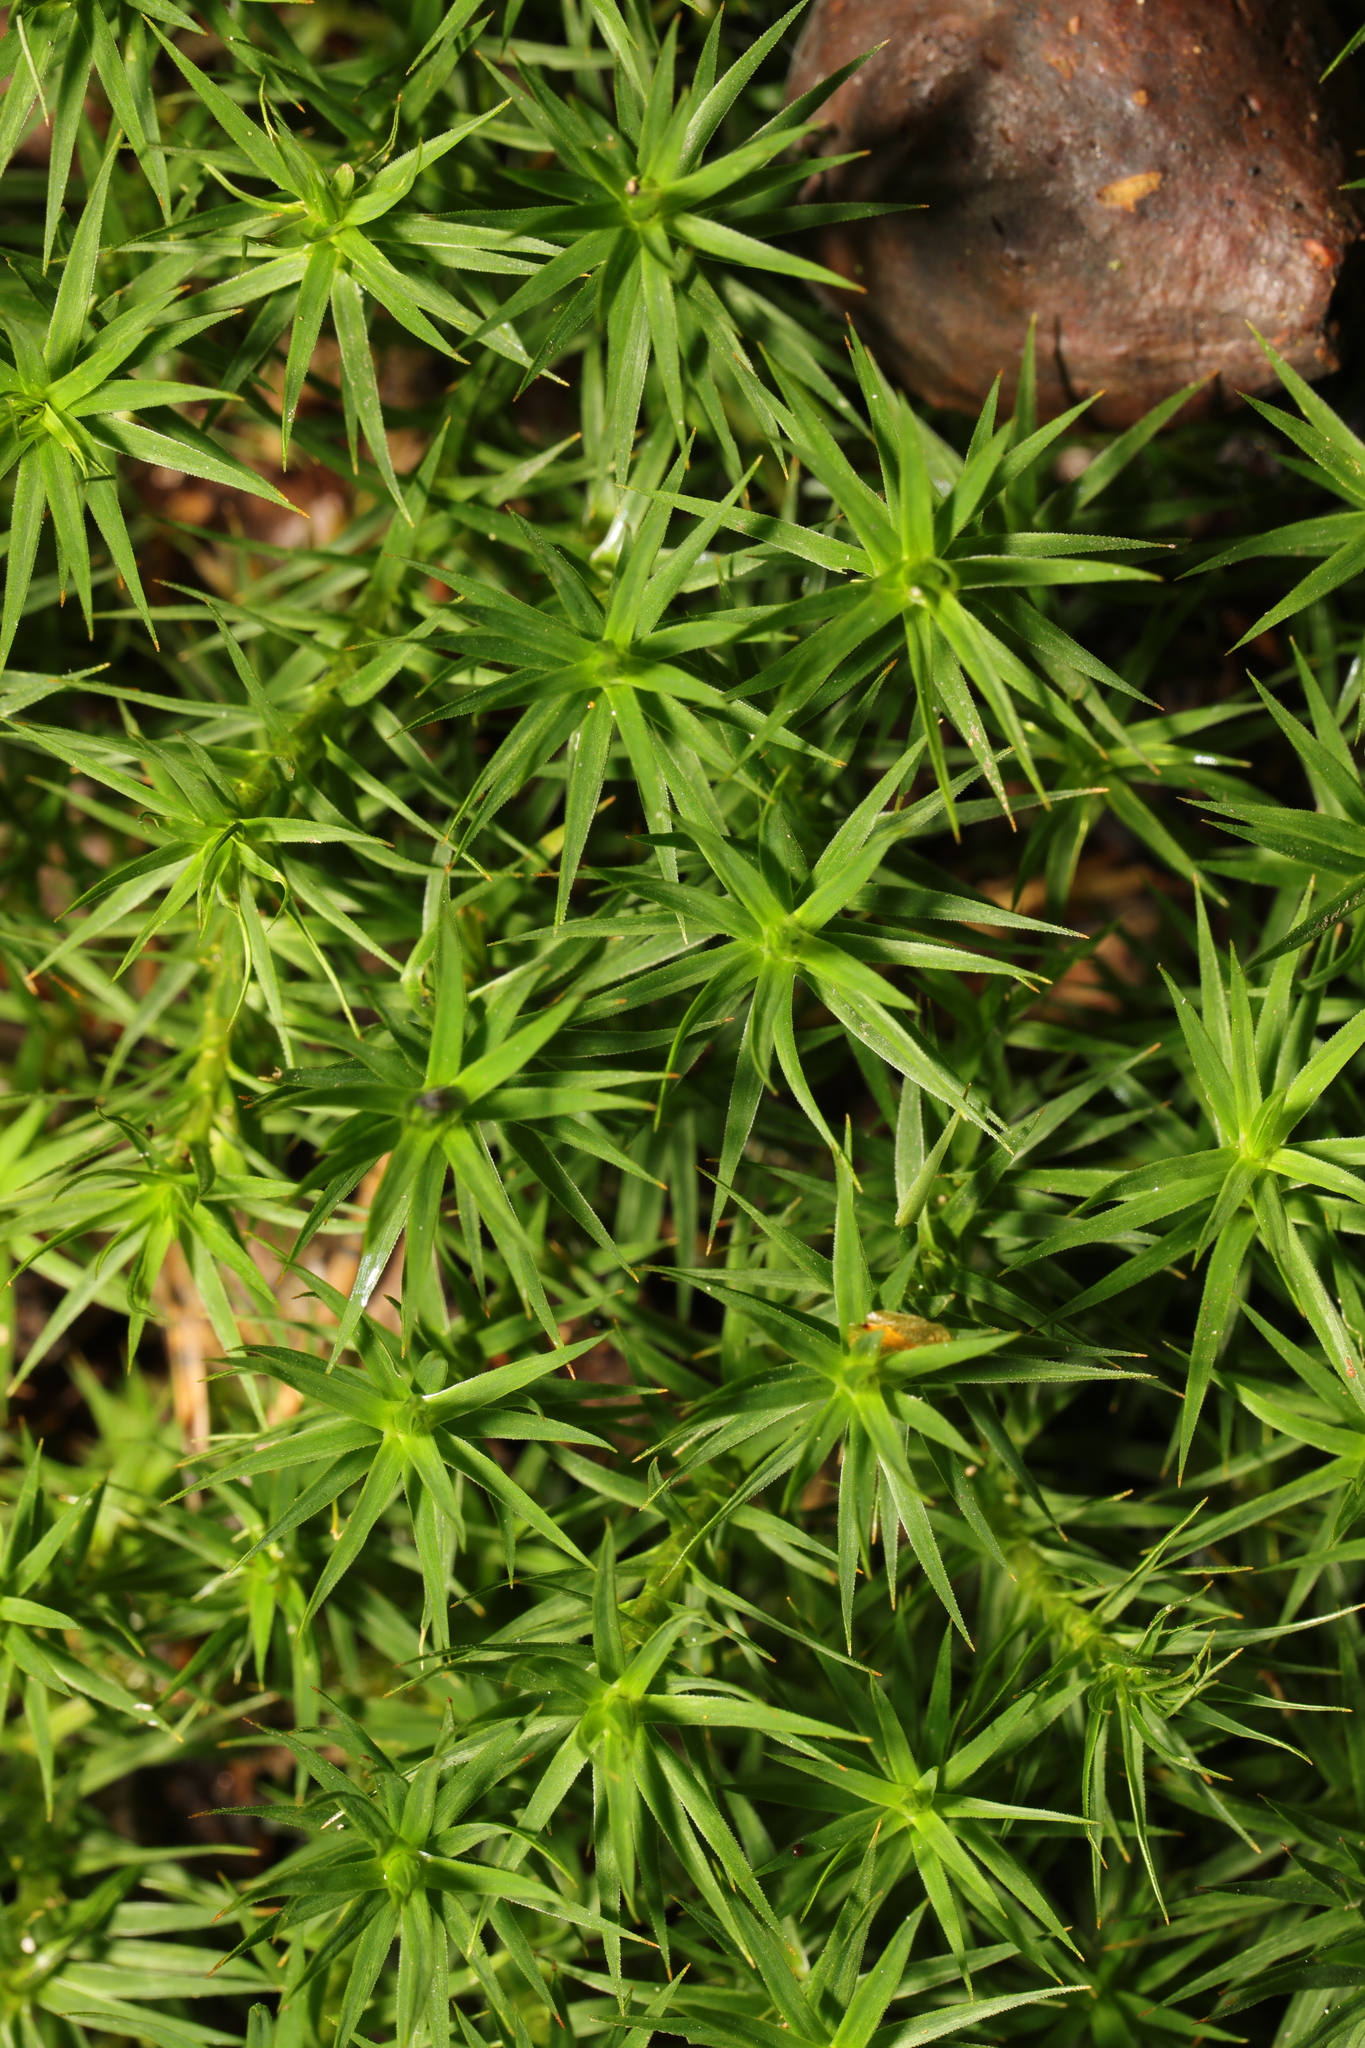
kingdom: Plantae
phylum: Bryophyta
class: Polytrichopsida
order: Polytrichales
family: Polytrichaceae
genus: Polytrichum
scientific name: Polytrichum formosum
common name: Bank haircap moss
